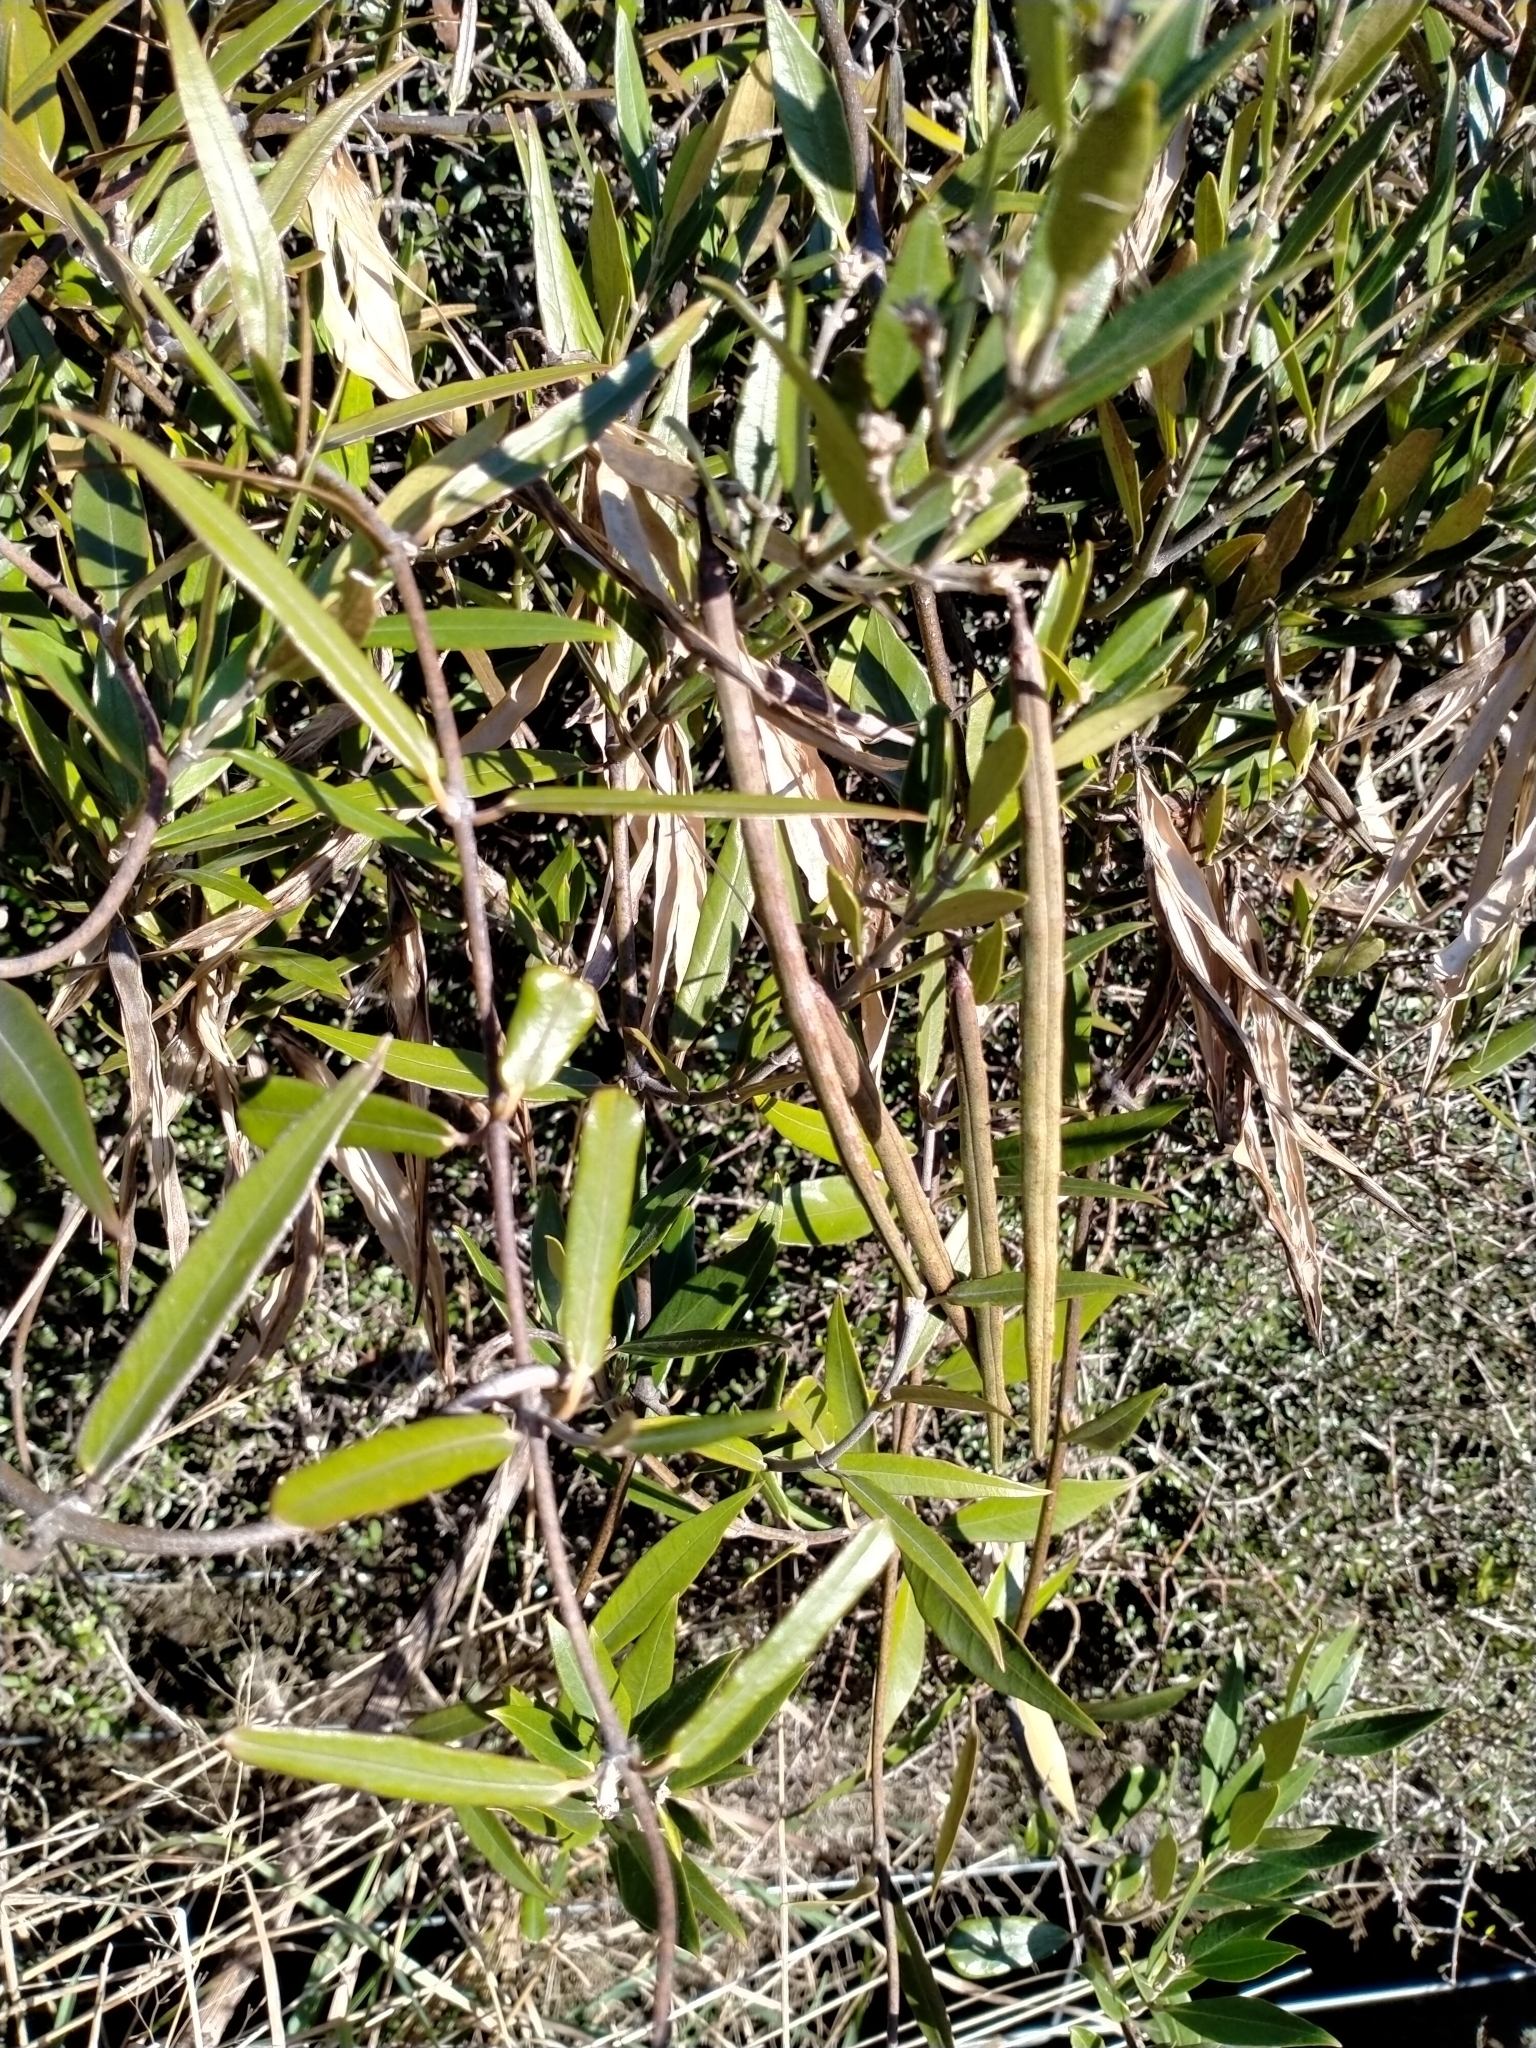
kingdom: Plantae
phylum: Tracheophyta
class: Magnoliopsida
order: Gentianales
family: Apocynaceae
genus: Parsonsia
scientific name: Parsonsia
